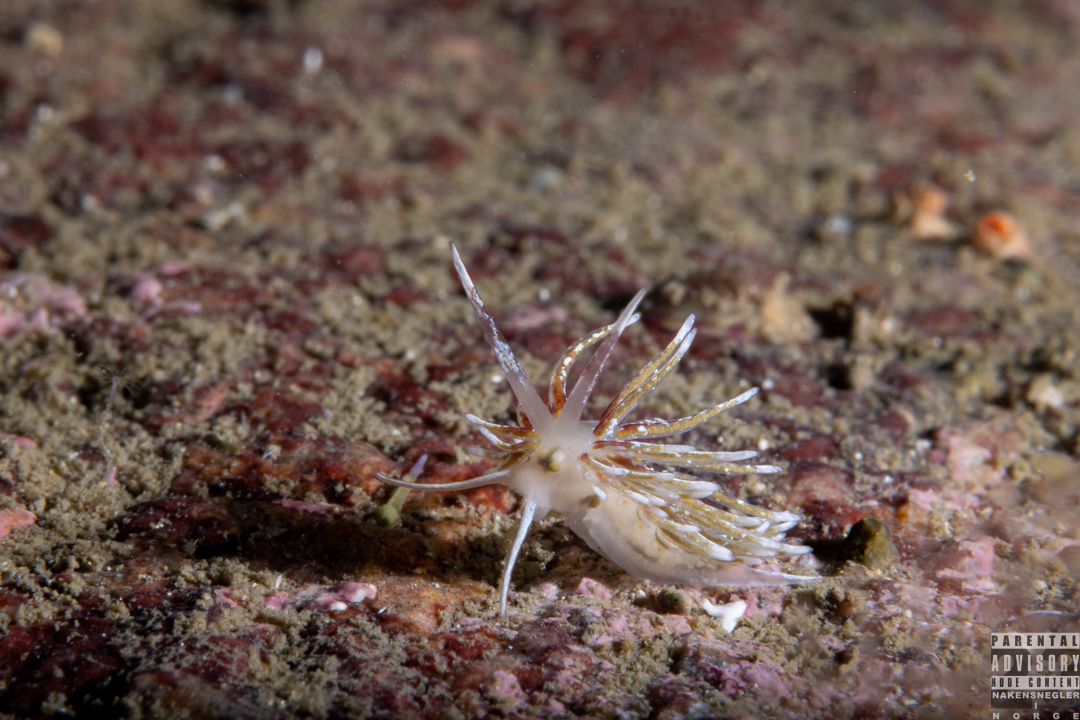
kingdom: Animalia
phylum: Mollusca
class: Gastropoda
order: Nudibranchia
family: Trinchesiidae
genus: Rubramoena
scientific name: Rubramoena rubescens
